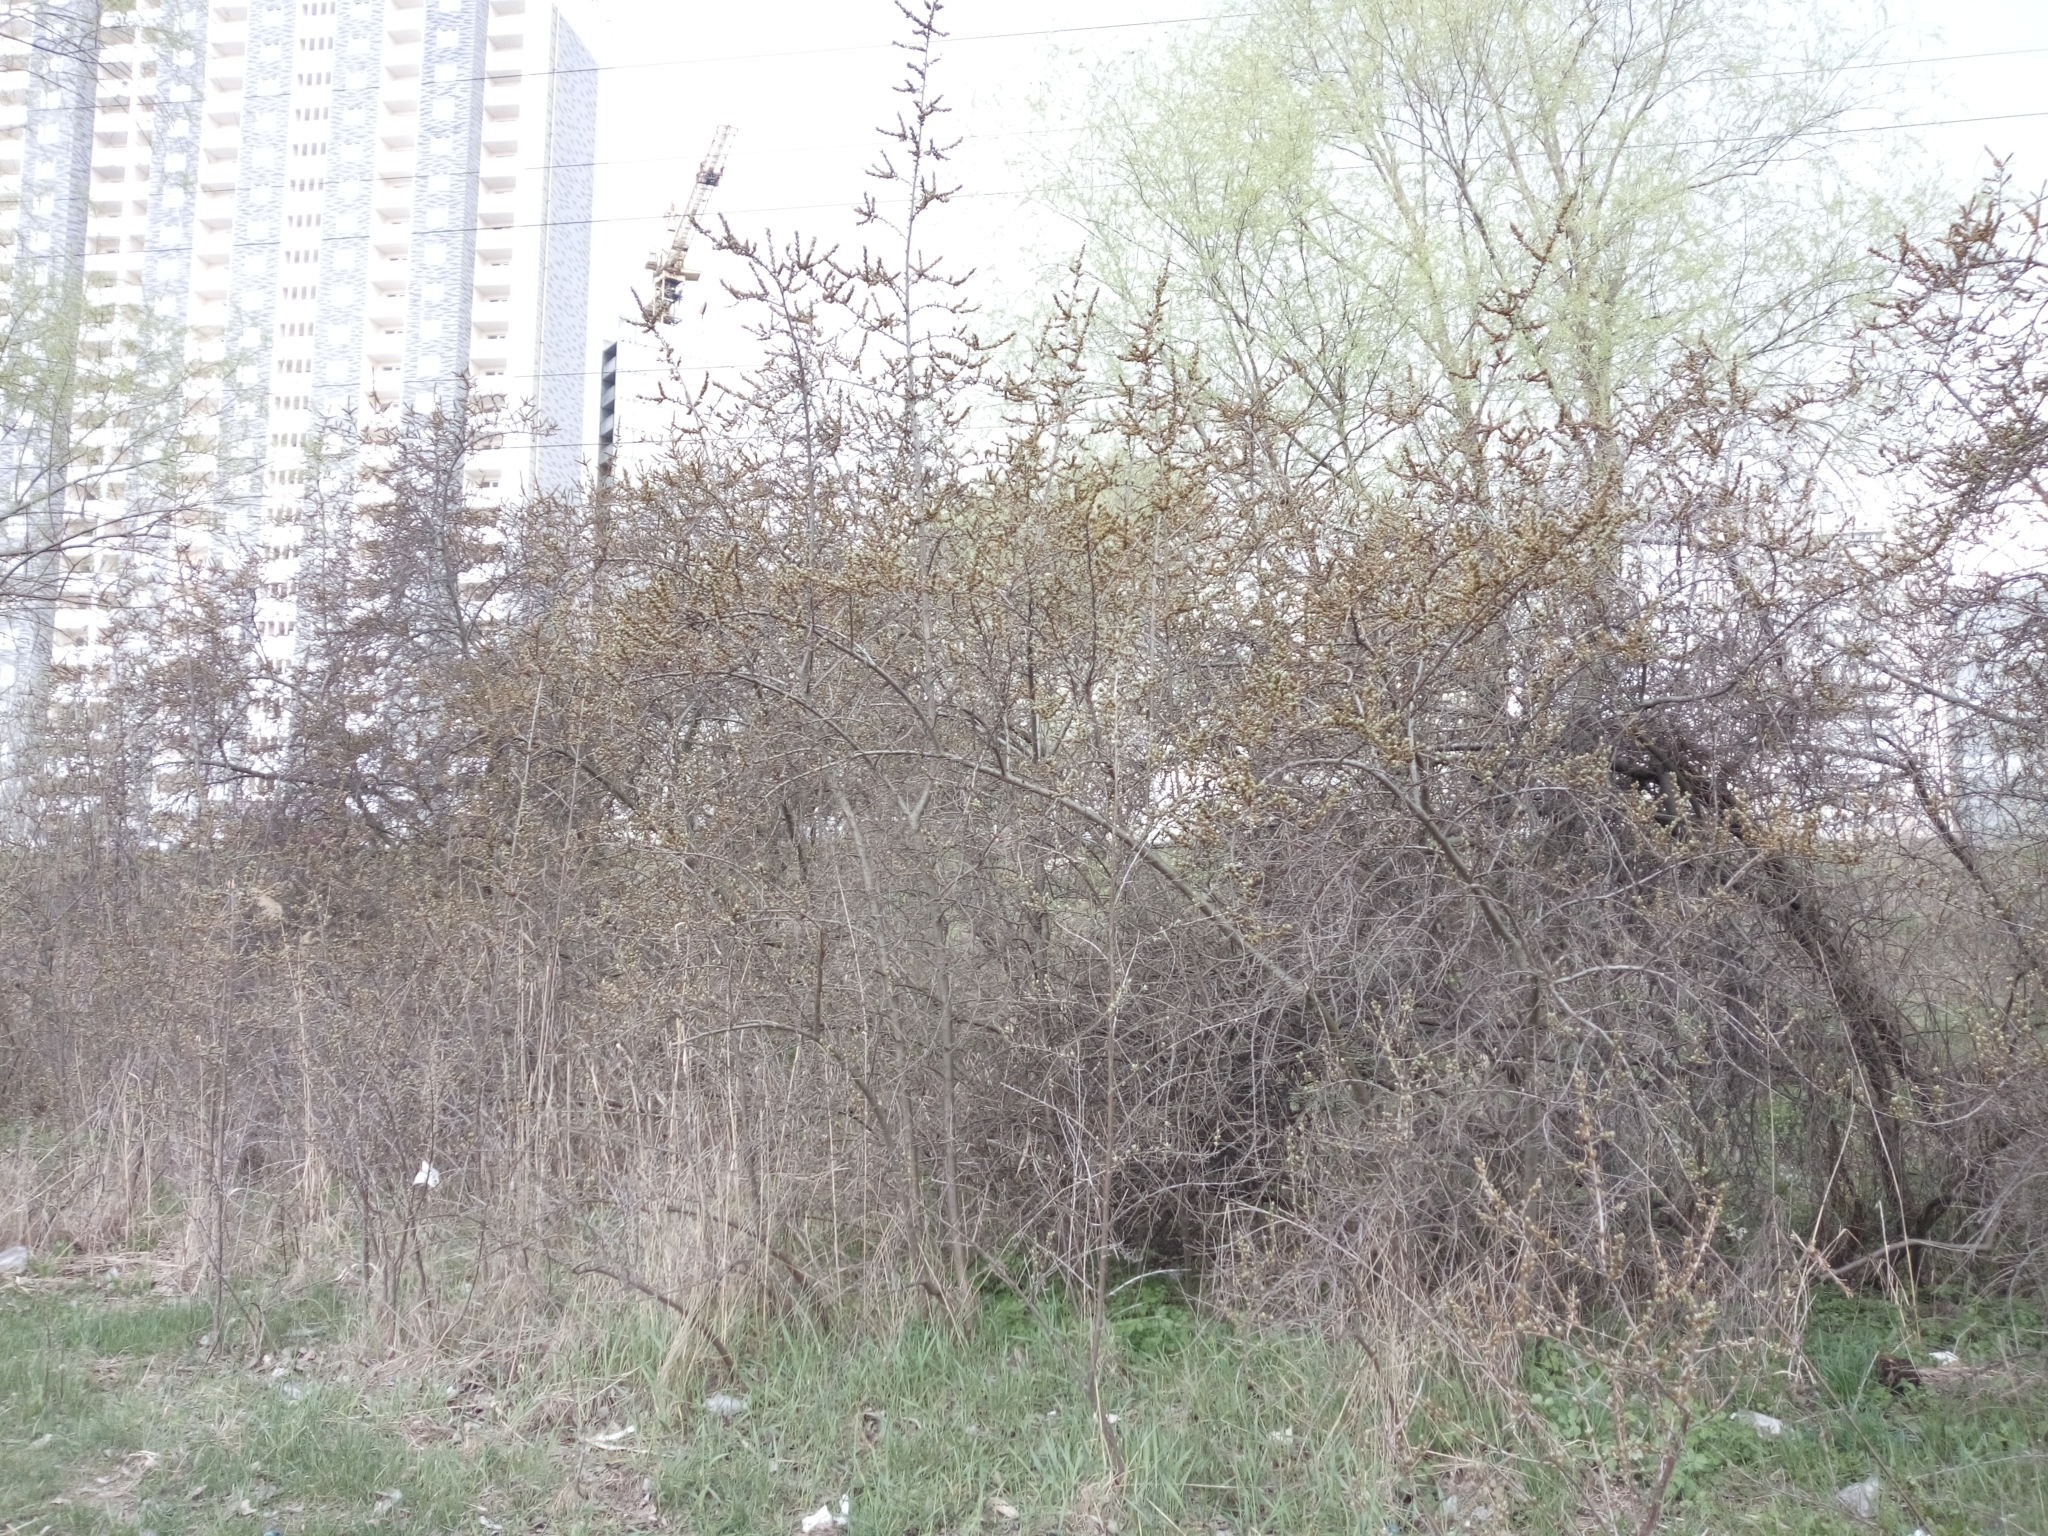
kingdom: Plantae
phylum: Tracheophyta
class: Magnoliopsida
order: Rosales
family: Elaeagnaceae
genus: Hippophae
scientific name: Hippophae rhamnoides
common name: Sea-buckthorn
